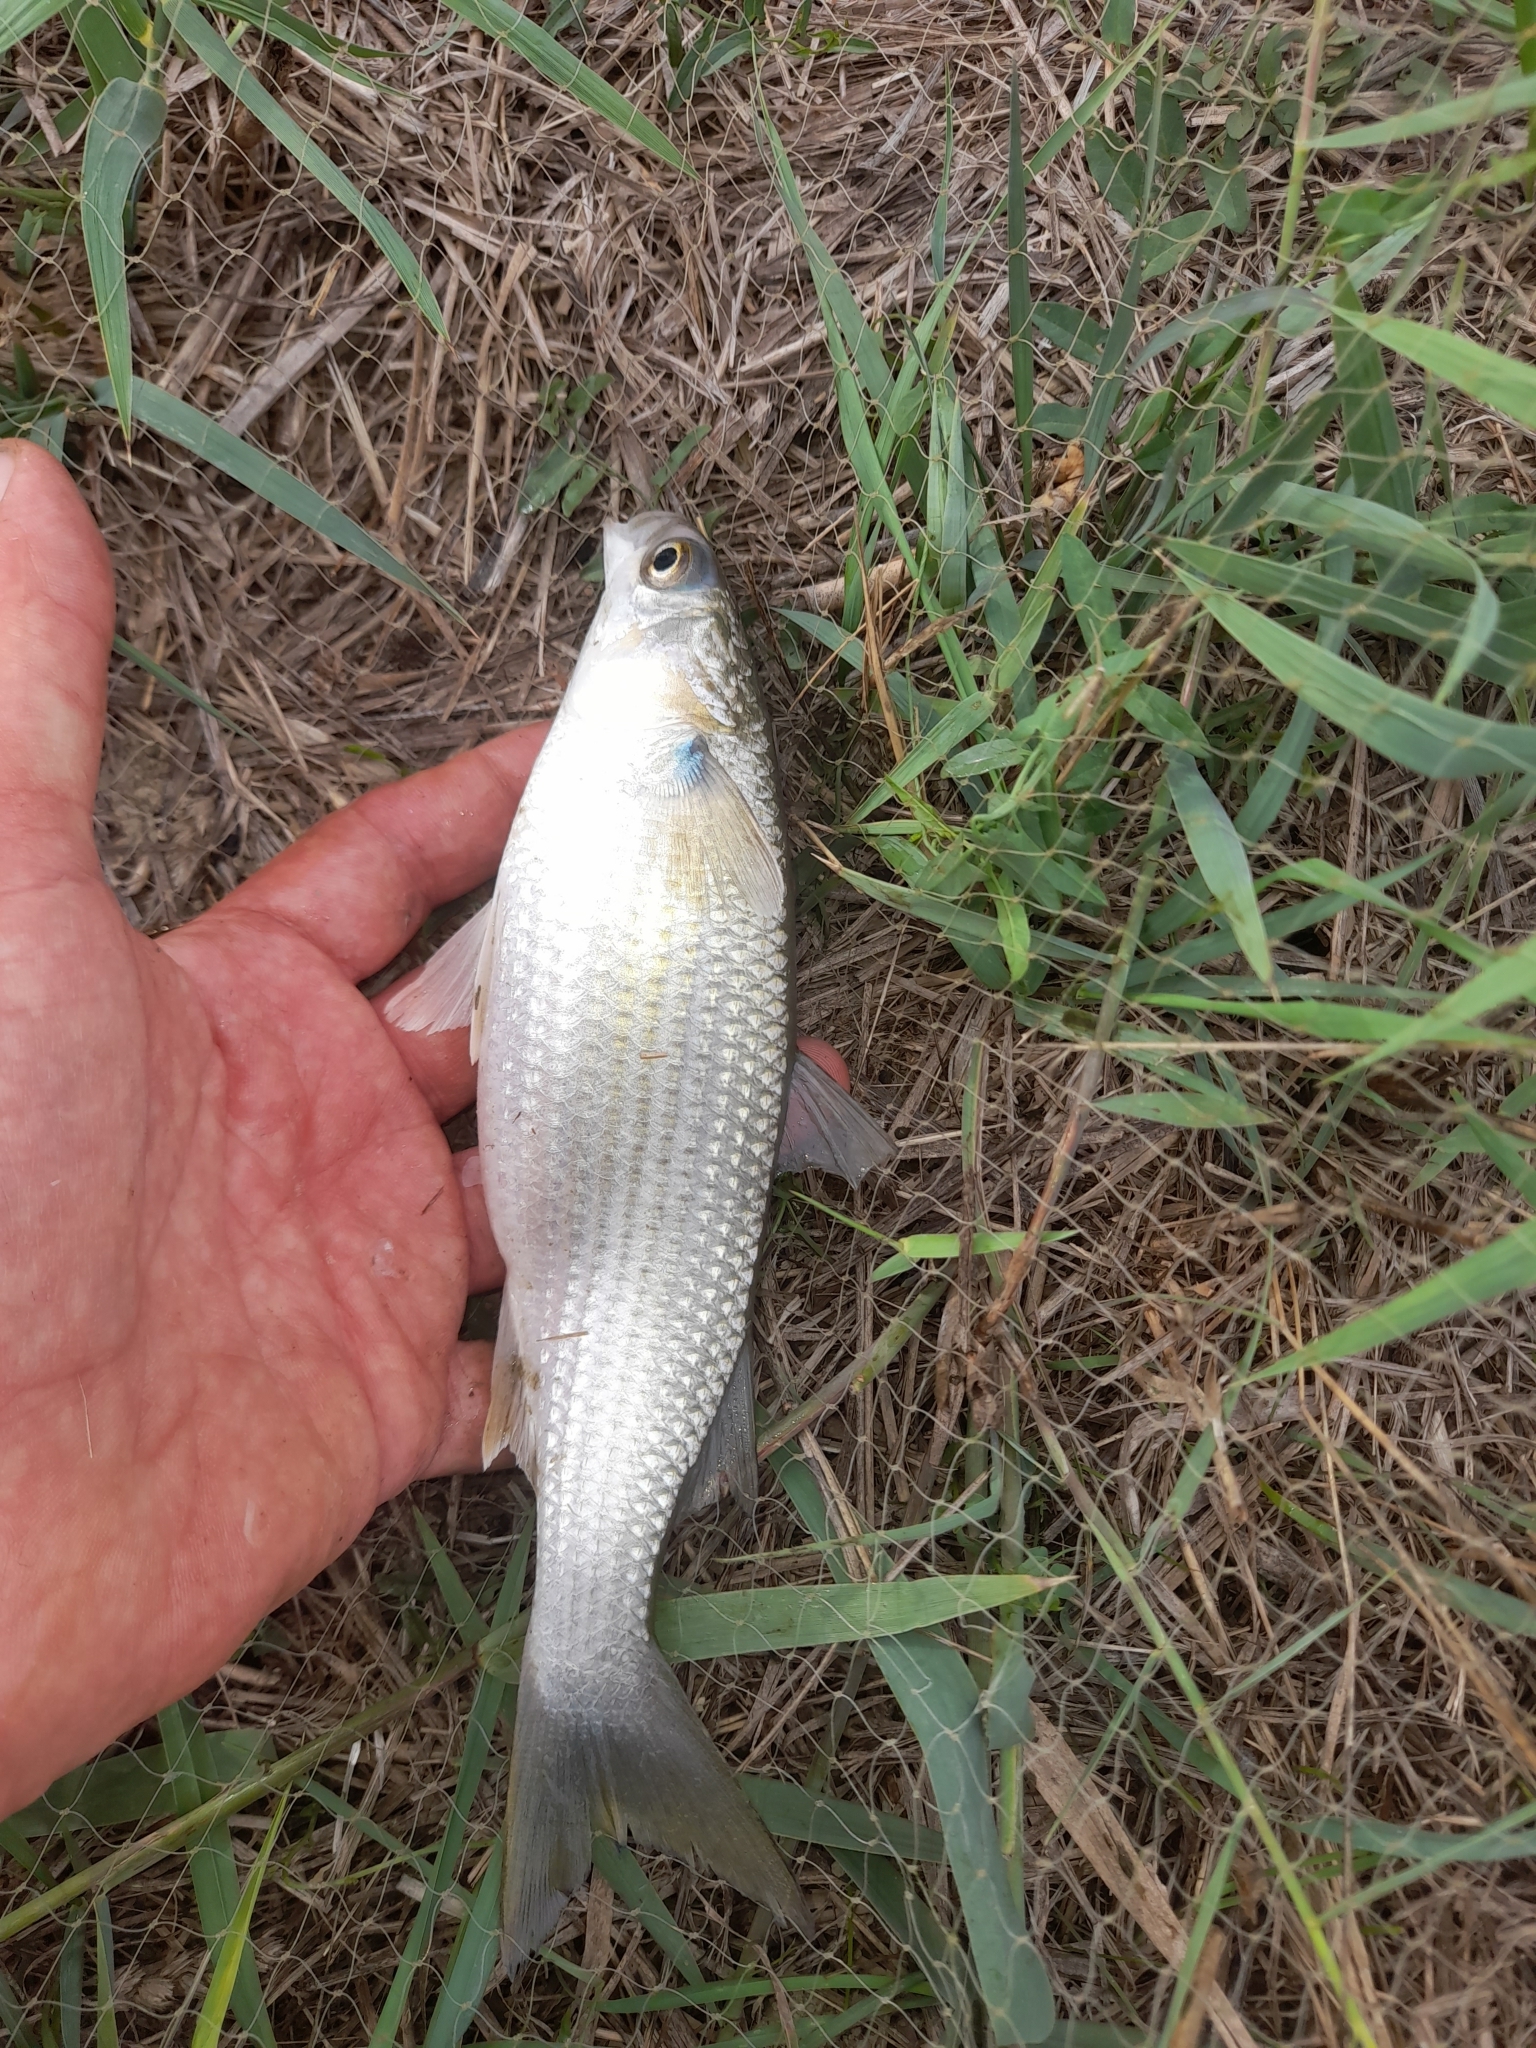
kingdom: Animalia
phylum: Chordata
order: Mugiliformes
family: Mugilidae
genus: Mugil
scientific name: Mugil cephalus
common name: Grey mullet
